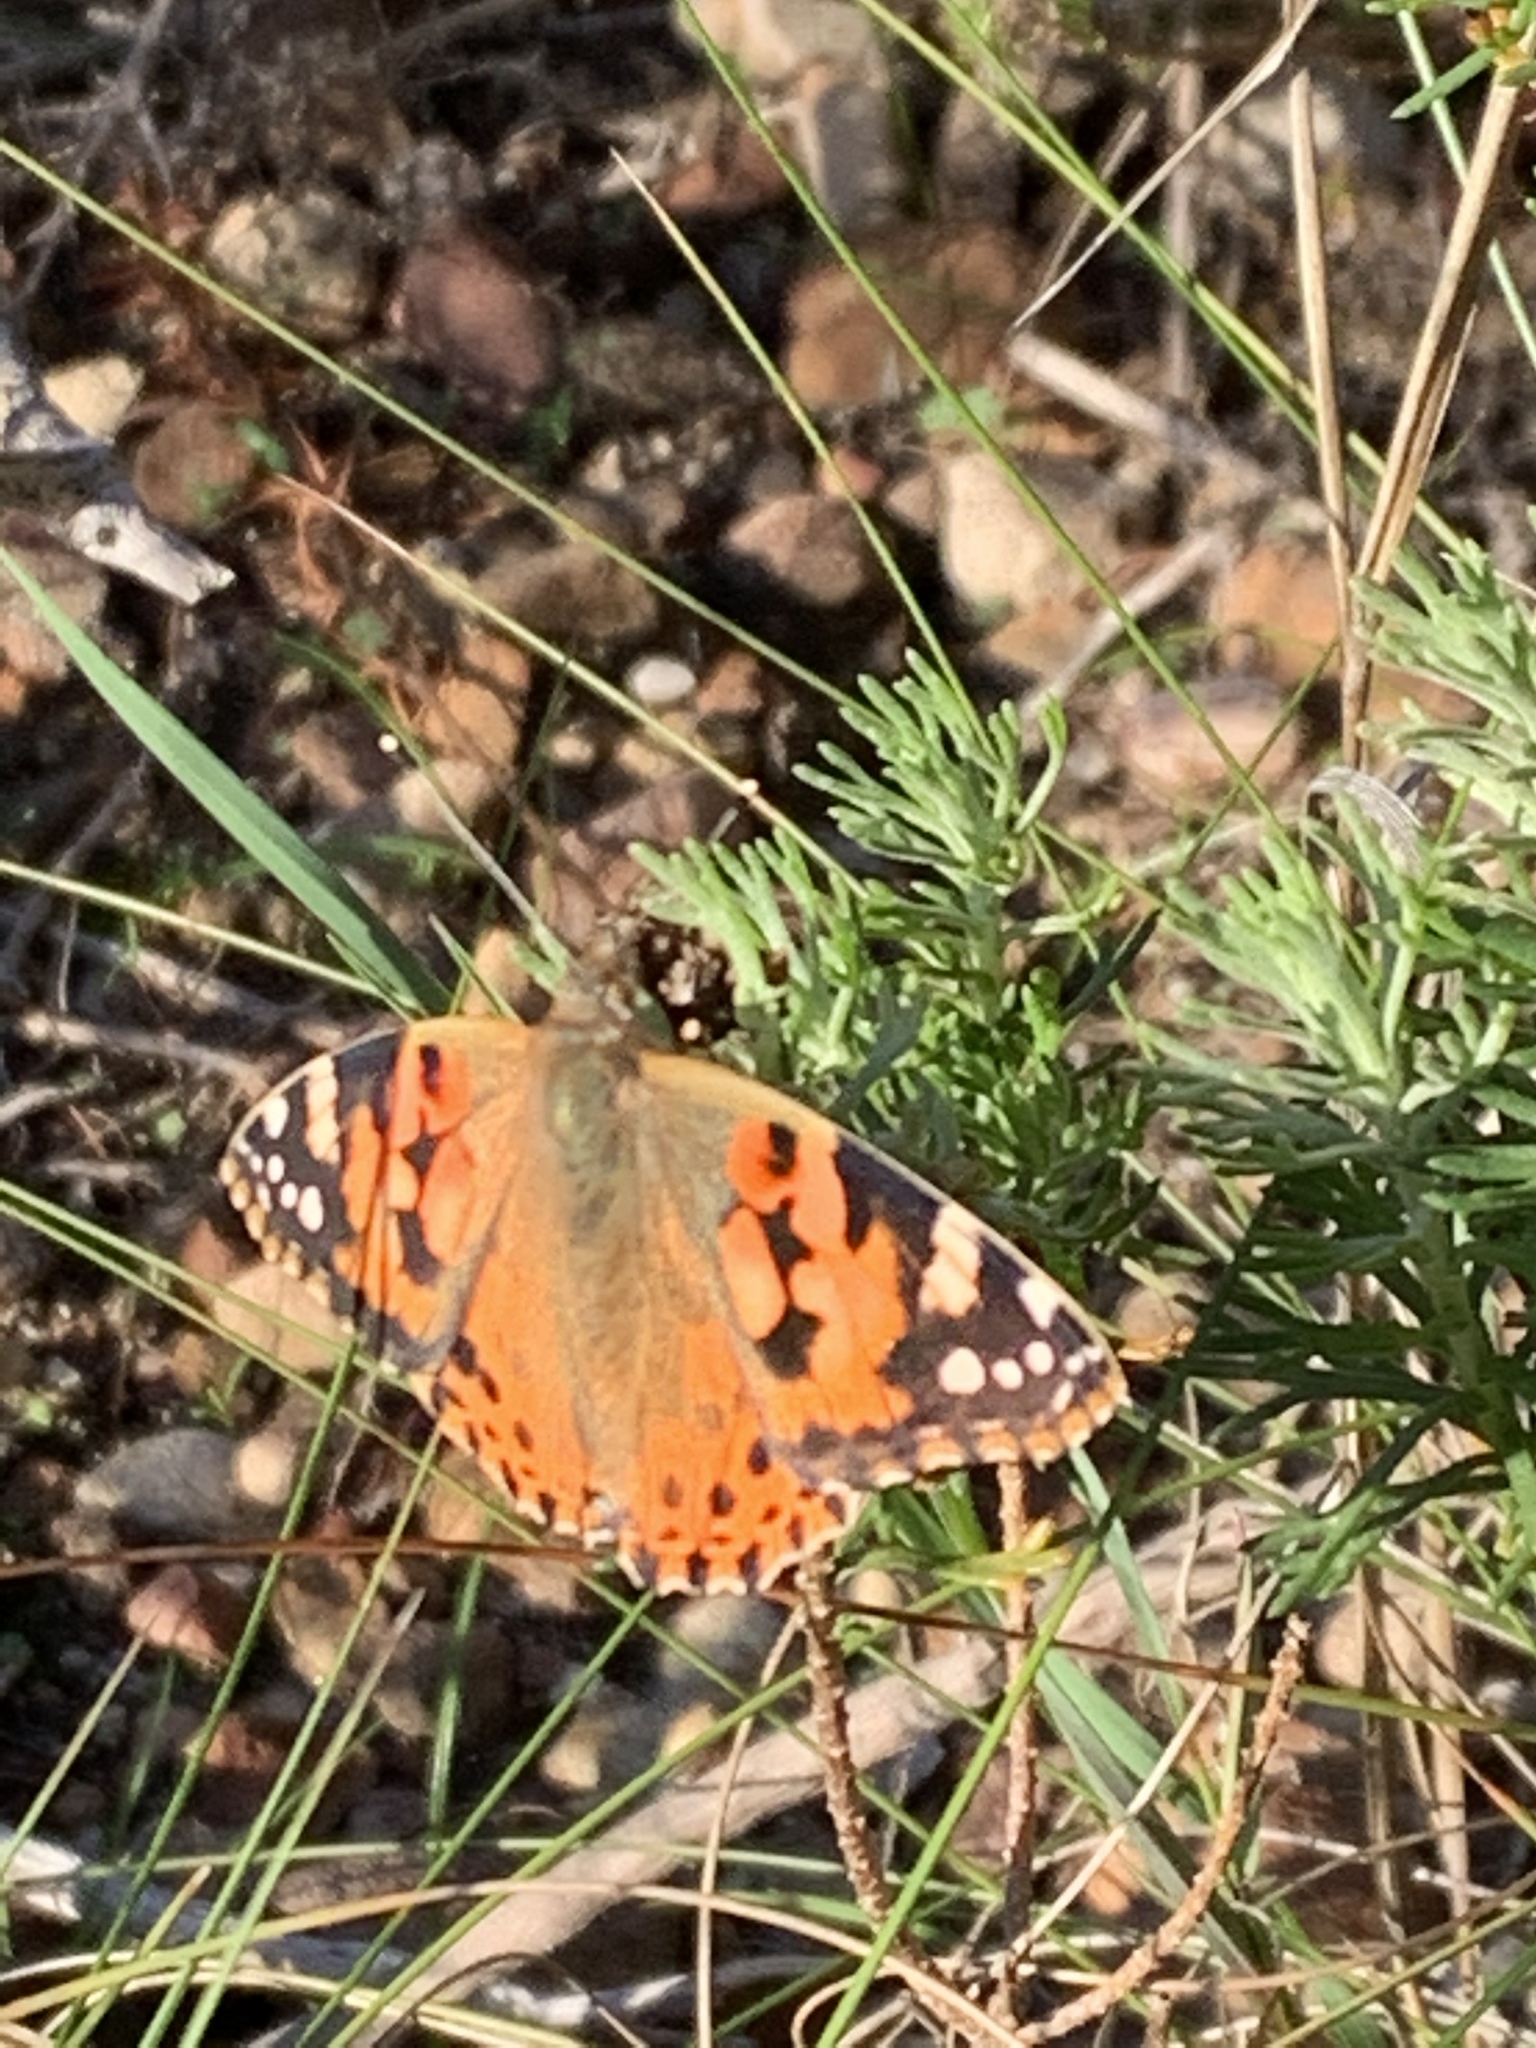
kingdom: Animalia
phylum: Arthropoda
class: Insecta
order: Lepidoptera
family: Nymphalidae
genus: Vanessa
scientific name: Vanessa cardui
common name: Painted lady
